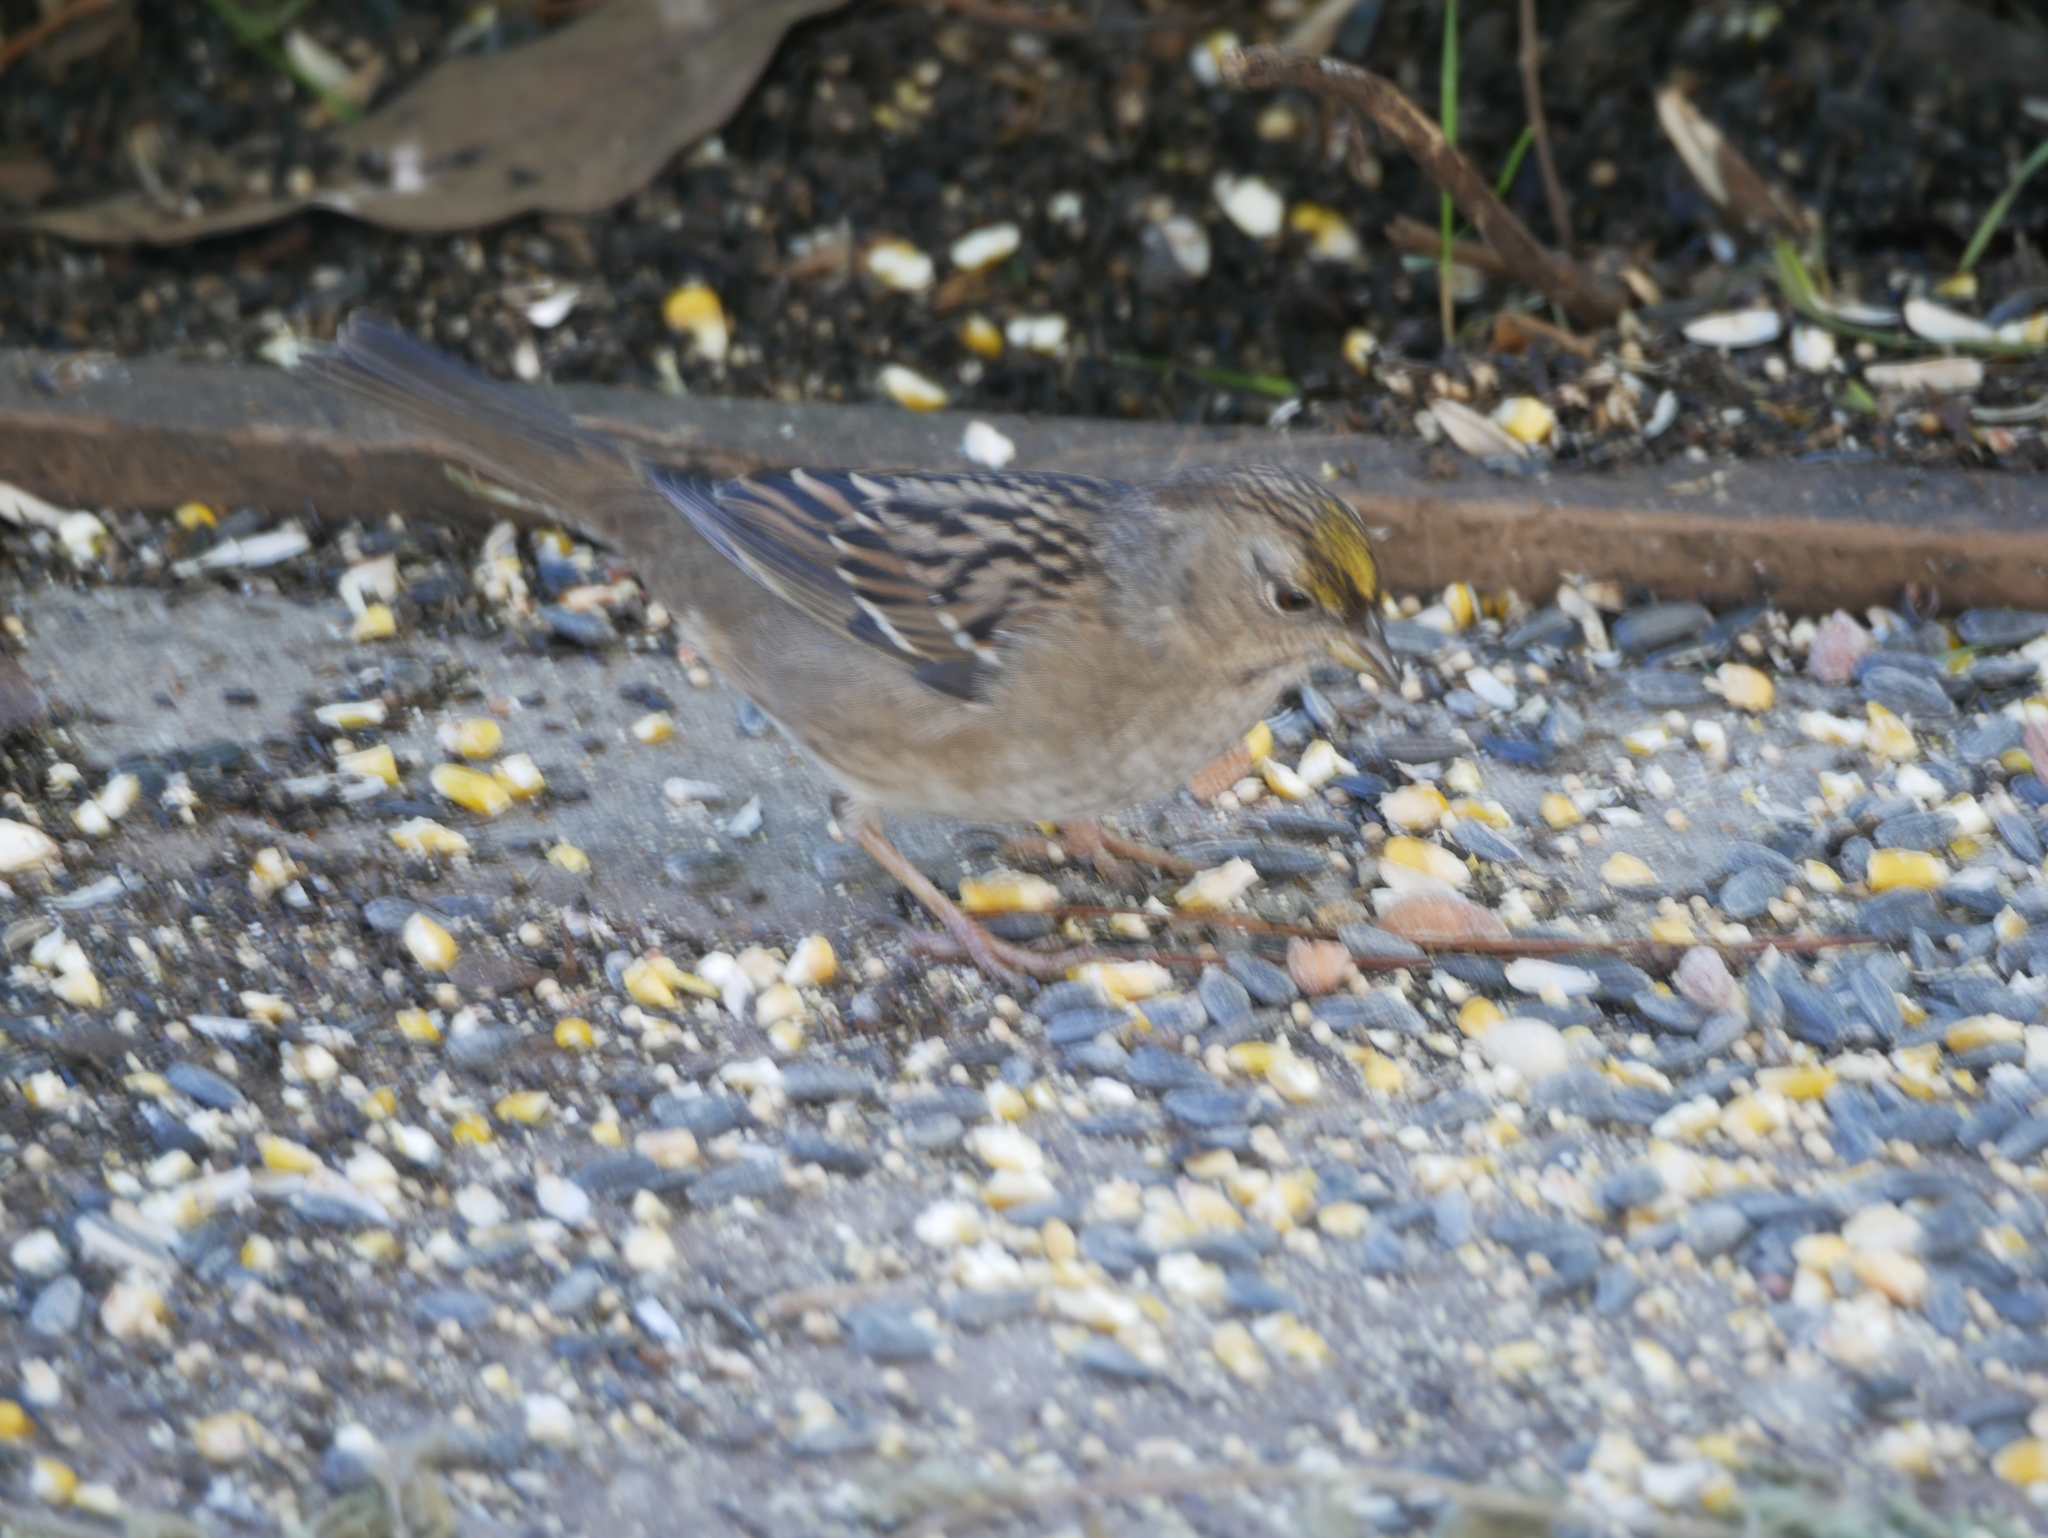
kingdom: Animalia
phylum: Chordata
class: Aves
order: Passeriformes
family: Passerellidae
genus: Zonotrichia
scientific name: Zonotrichia atricapilla
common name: Golden-crowned sparrow
